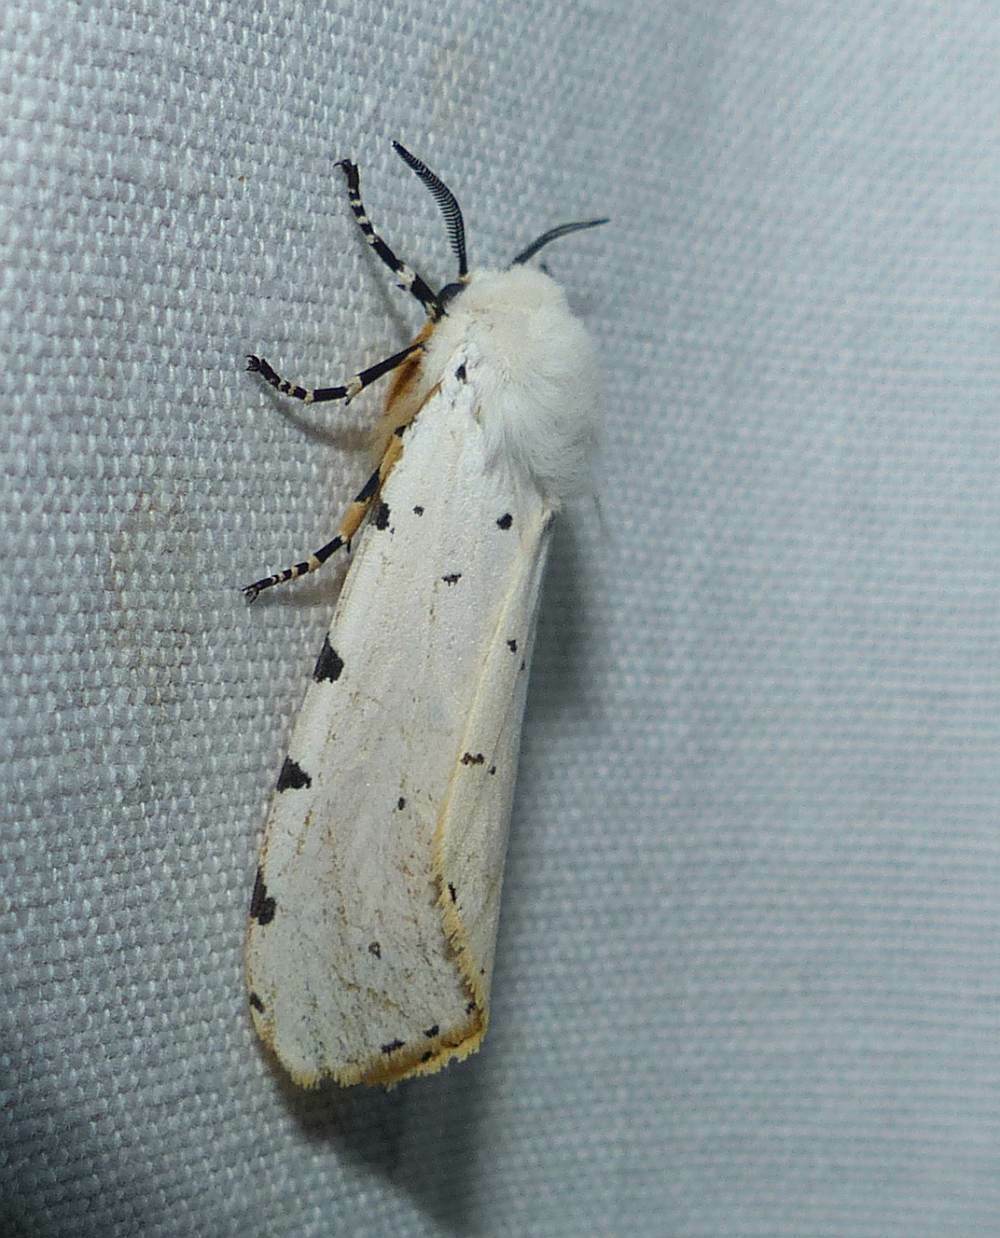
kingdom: Animalia
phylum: Arthropoda
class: Insecta
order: Lepidoptera
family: Erebidae
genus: Estigmene
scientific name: Estigmene acrea
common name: Salt marsh moth
